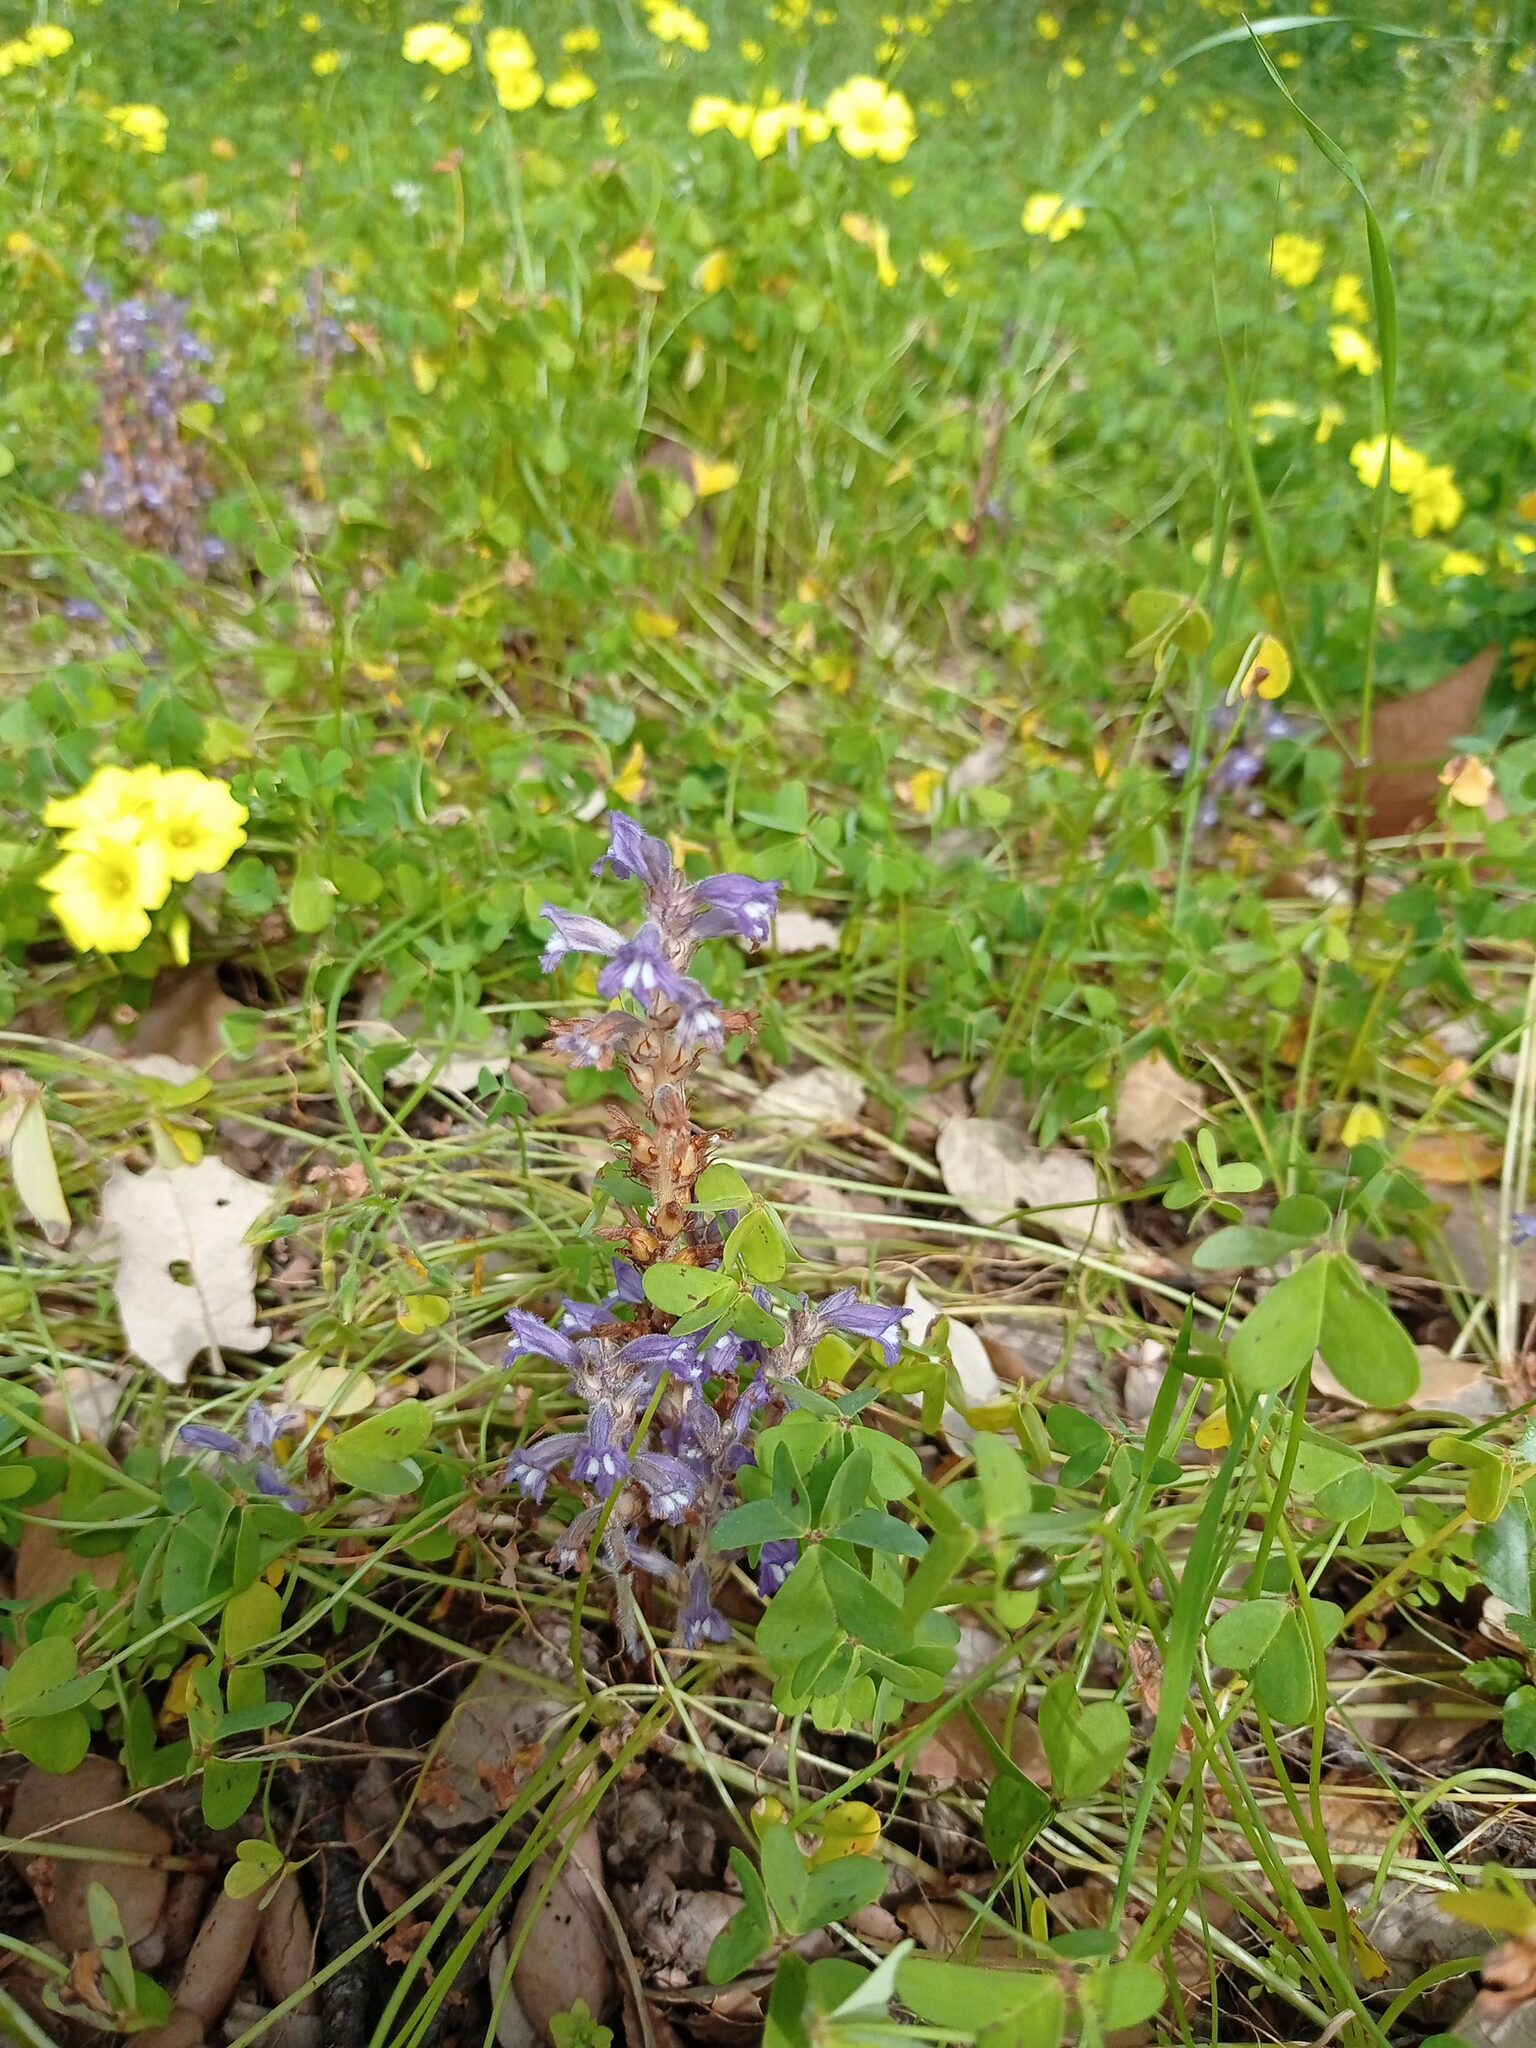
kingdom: Plantae
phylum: Tracheophyta
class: Magnoliopsida
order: Lamiales
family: Orobanchaceae
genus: Phelipanche
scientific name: Phelipanche mutelii
